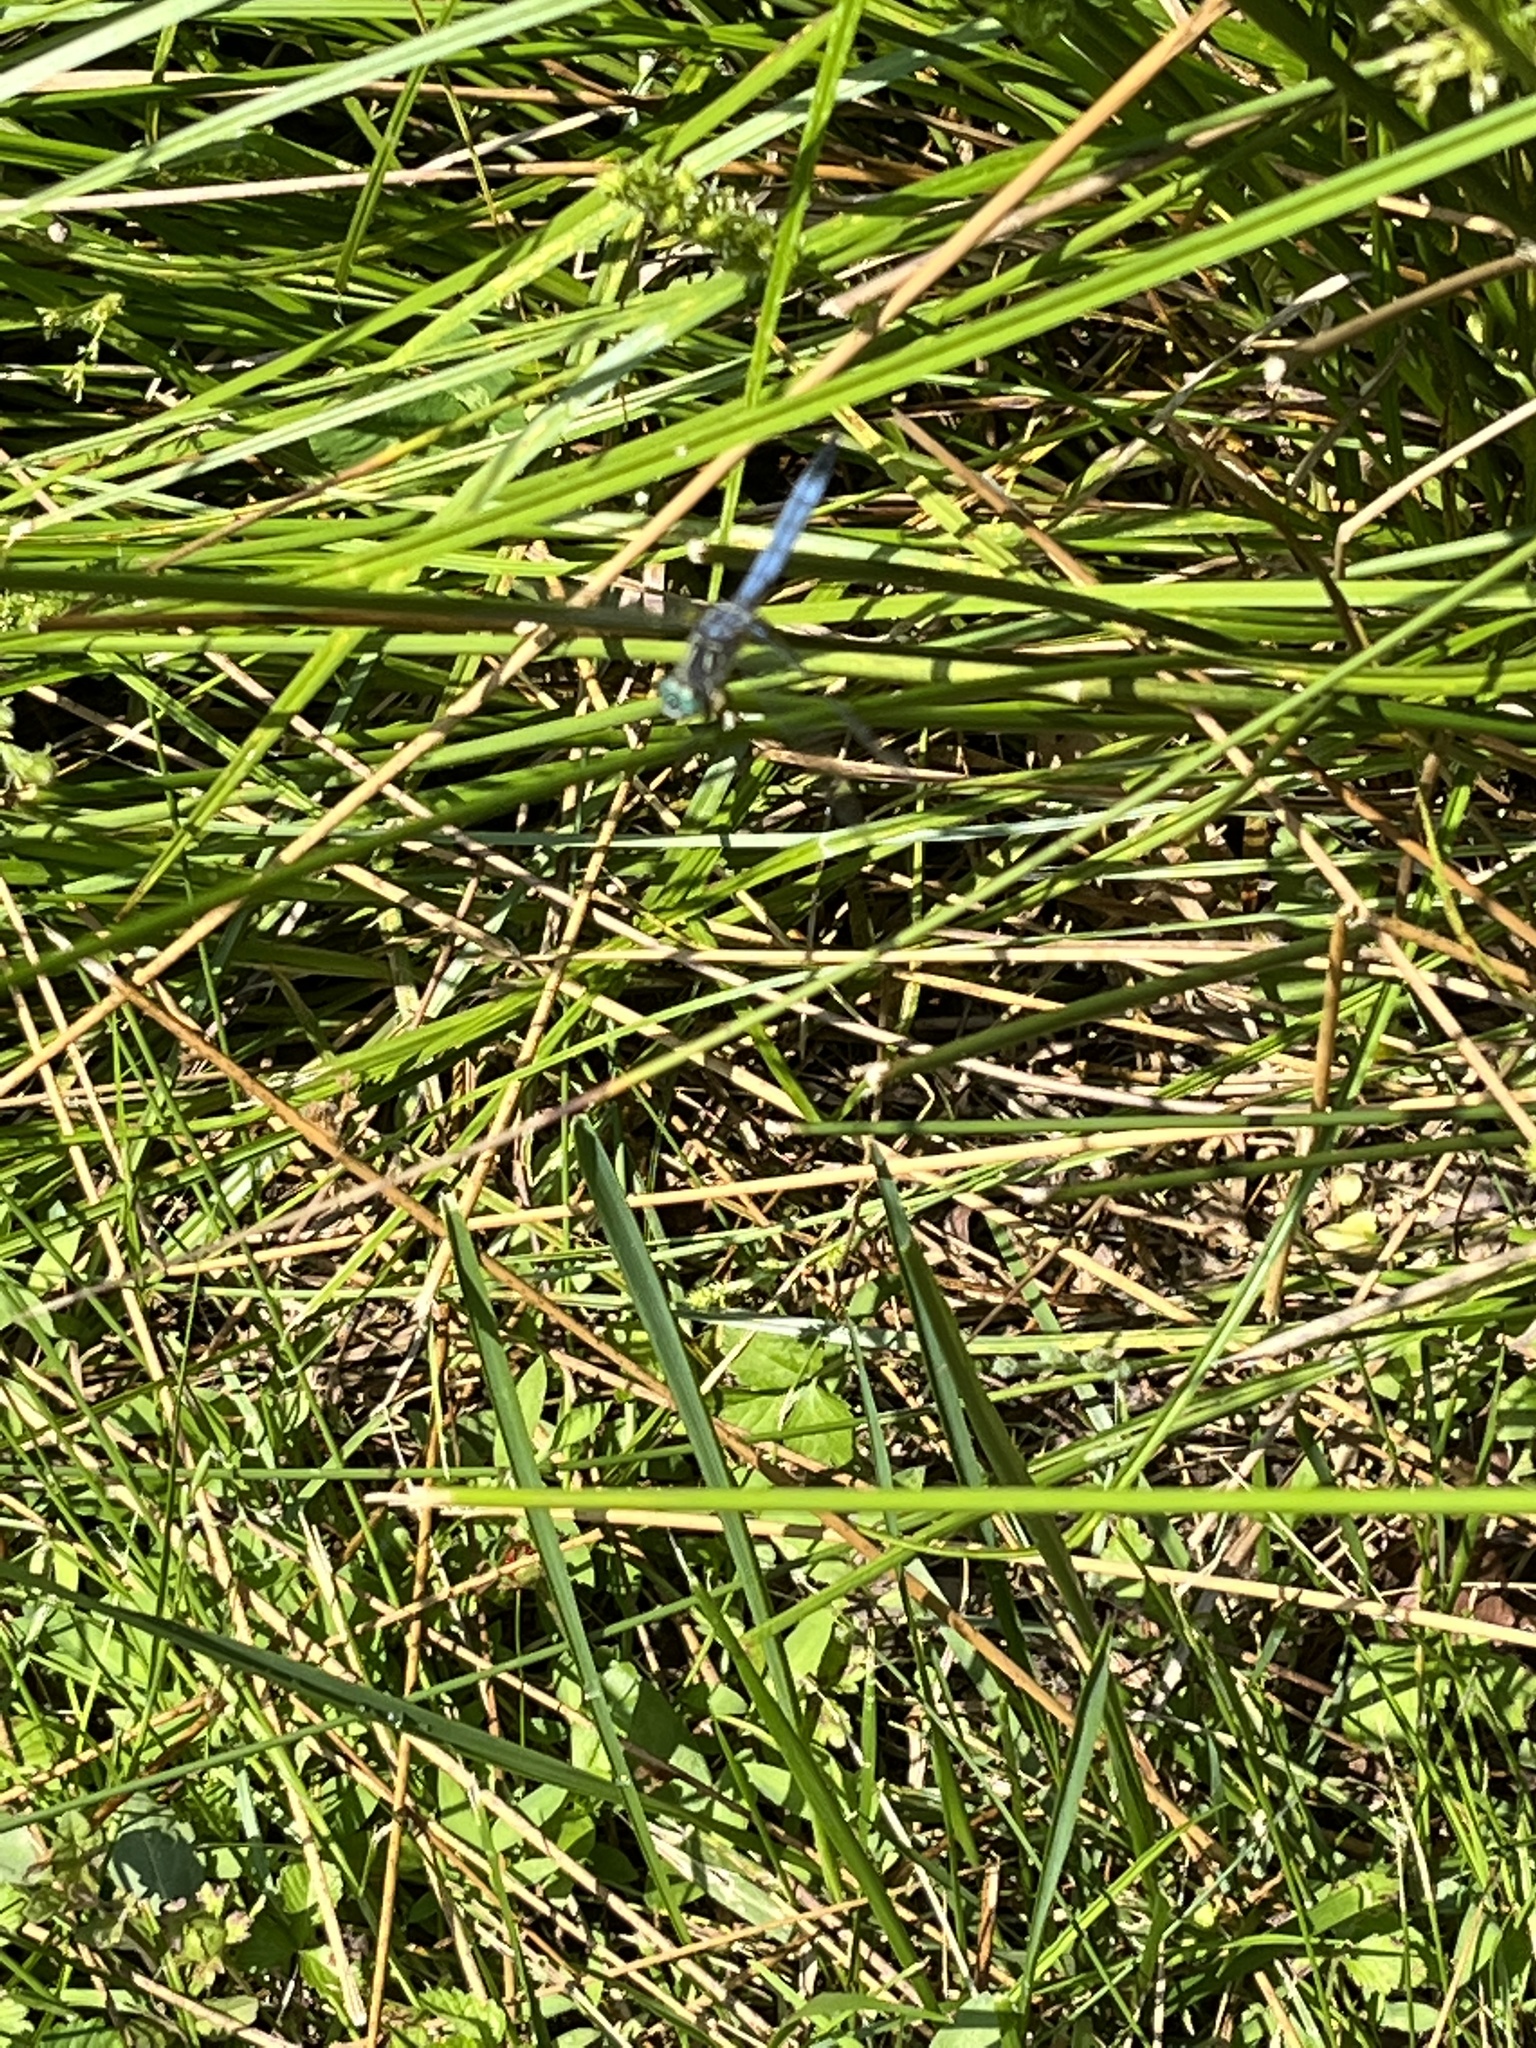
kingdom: Animalia
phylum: Arthropoda
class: Insecta
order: Odonata
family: Libellulidae
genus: Pachydiplax
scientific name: Pachydiplax longipennis
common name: Blue dasher
